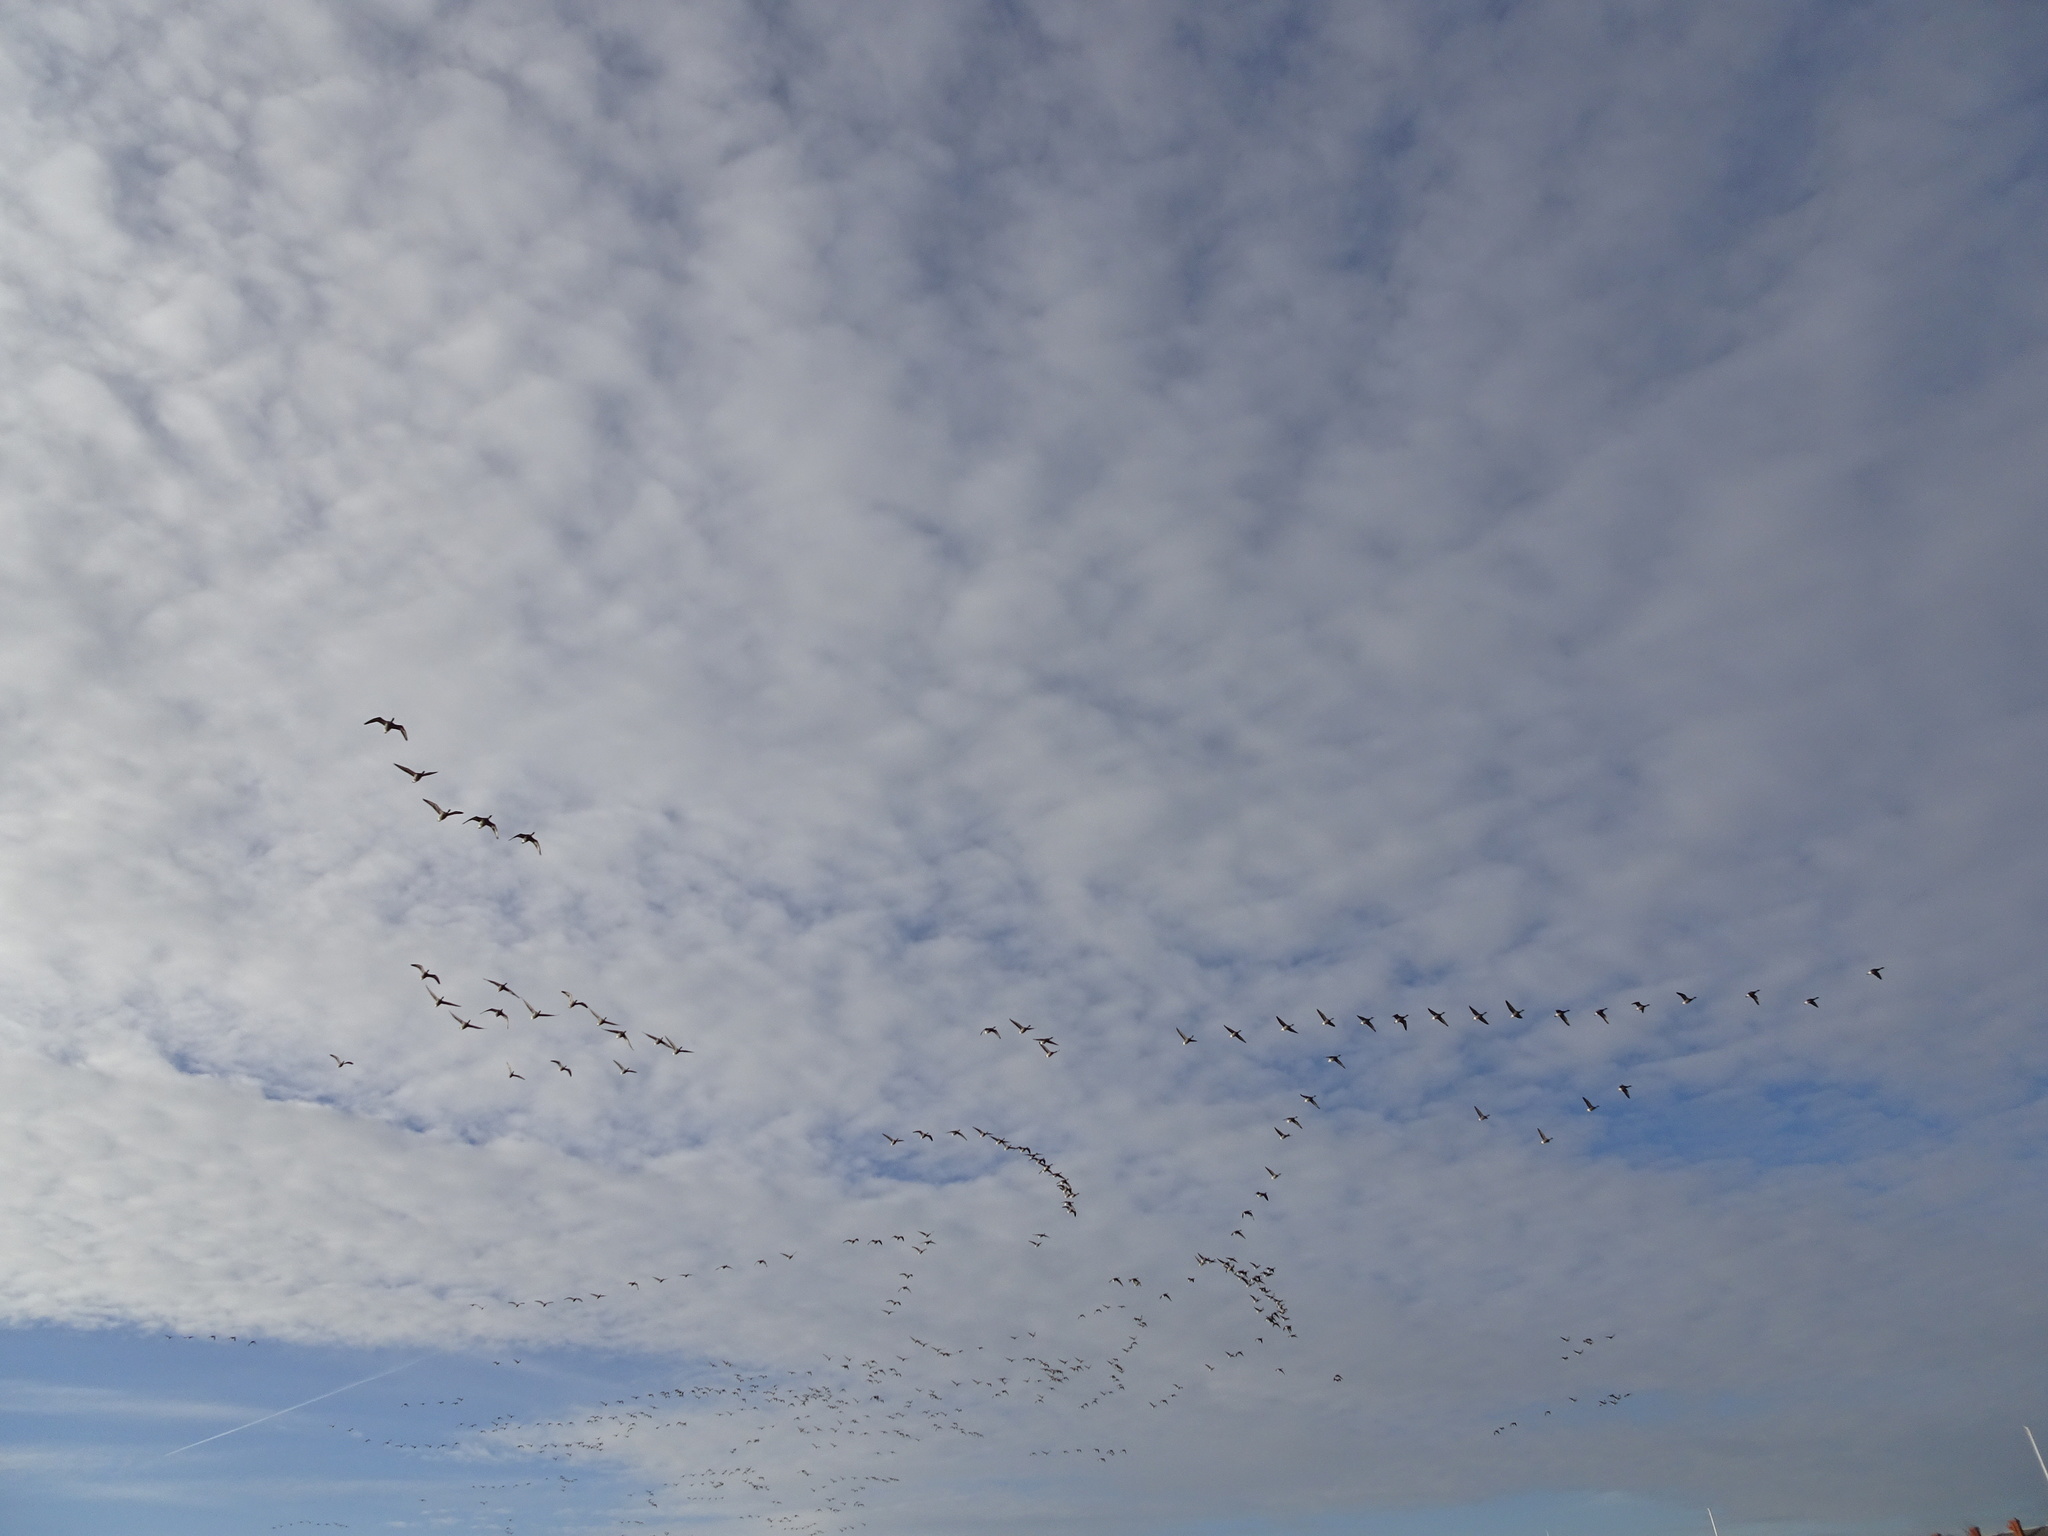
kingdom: Animalia
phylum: Chordata
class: Aves
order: Anseriformes
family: Anatidae
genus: Branta
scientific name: Branta bernicla
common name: Brant goose
